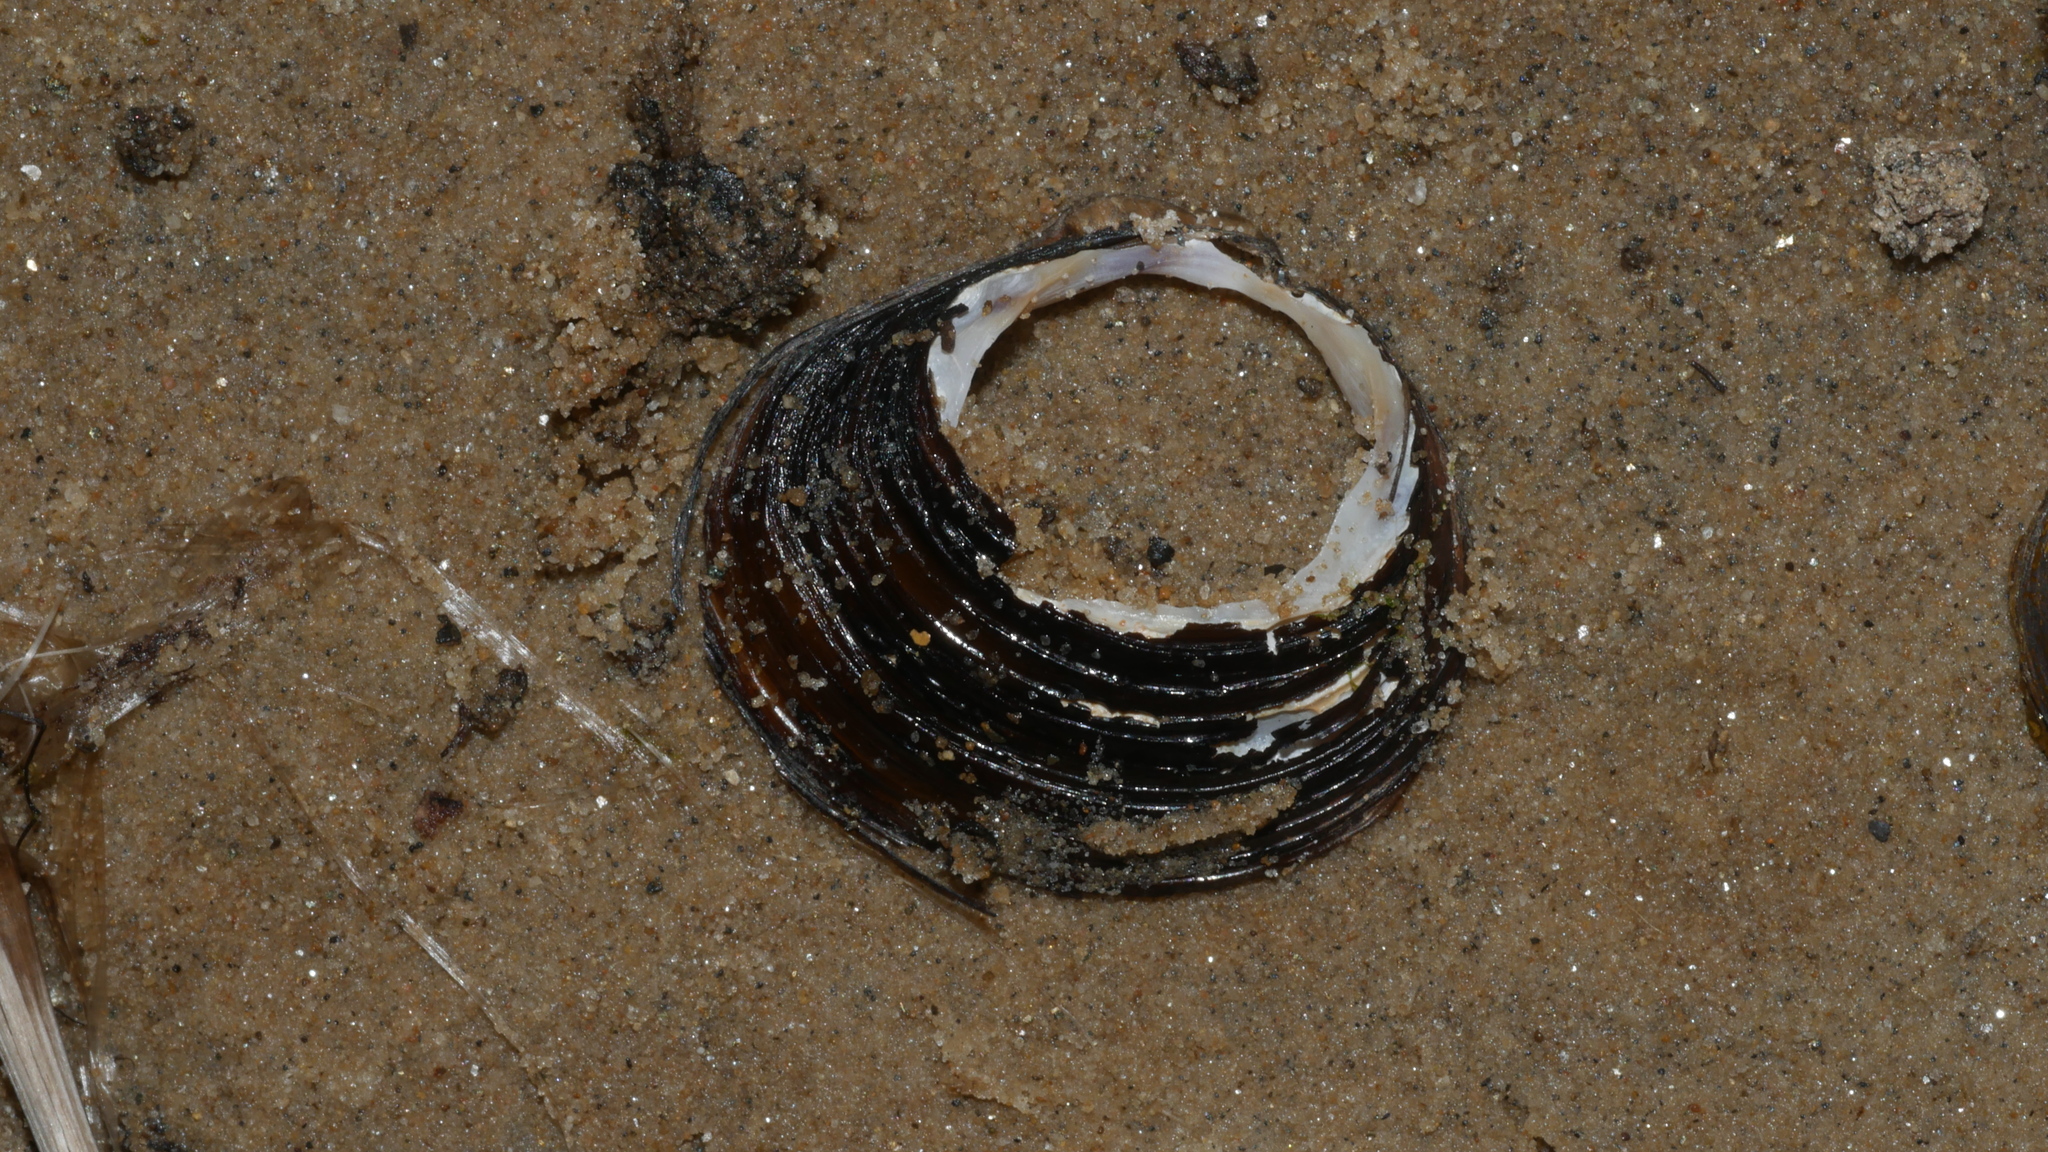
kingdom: Animalia
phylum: Mollusca
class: Bivalvia
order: Venerida
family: Cyrenidae
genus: Corbicula
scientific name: Corbicula fluminea
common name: Asian clam
